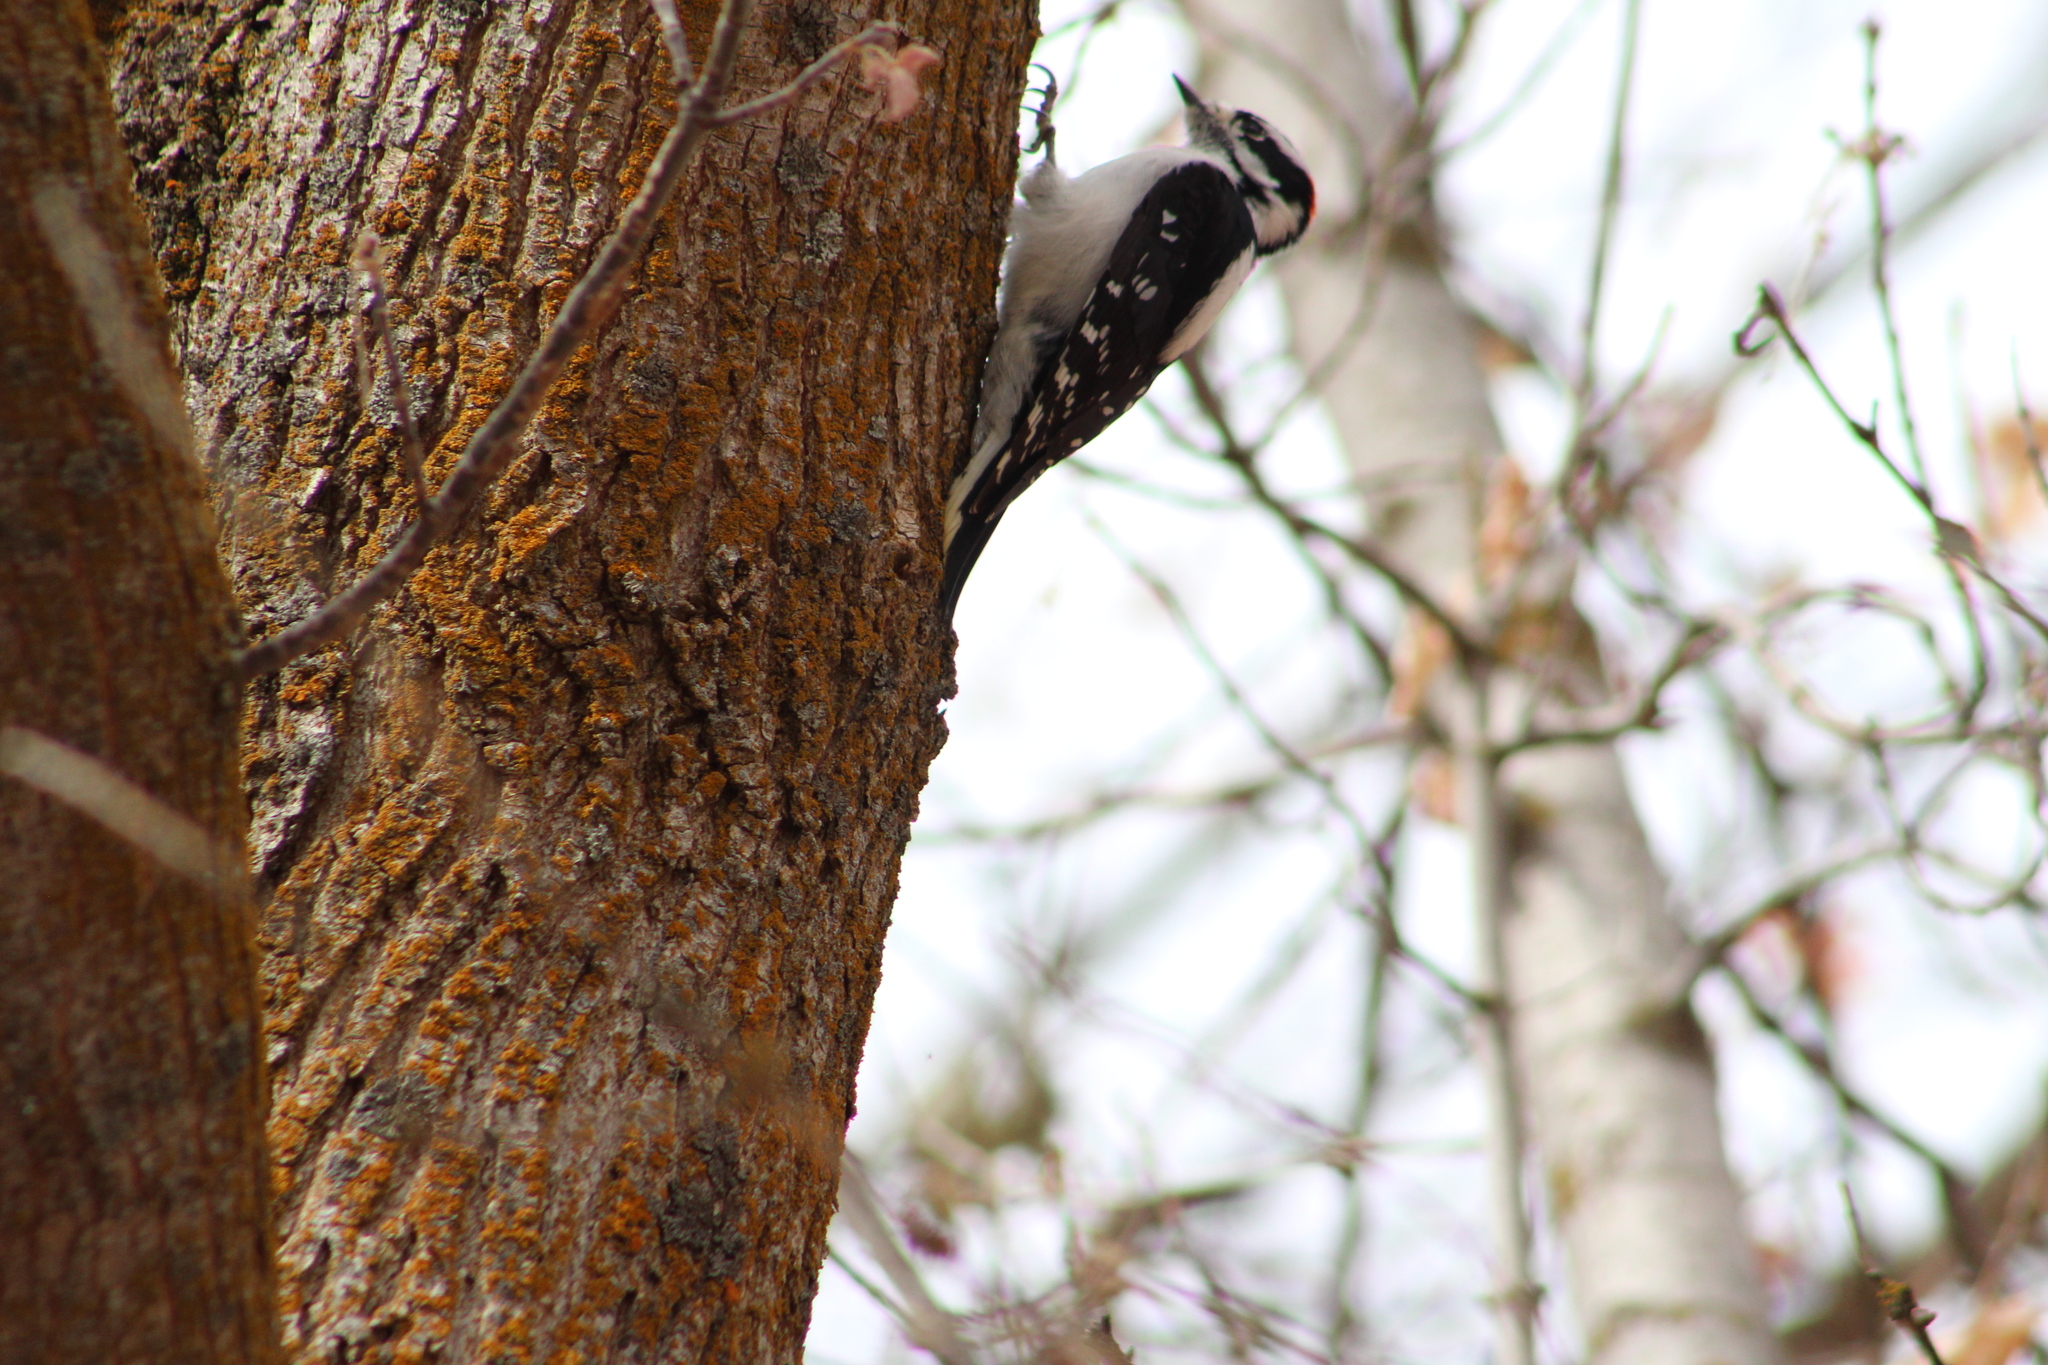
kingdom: Animalia
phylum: Chordata
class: Aves
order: Piciformes
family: Picidae
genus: Dryobates
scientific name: Dryobates pubescens
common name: Downy woodpecker
